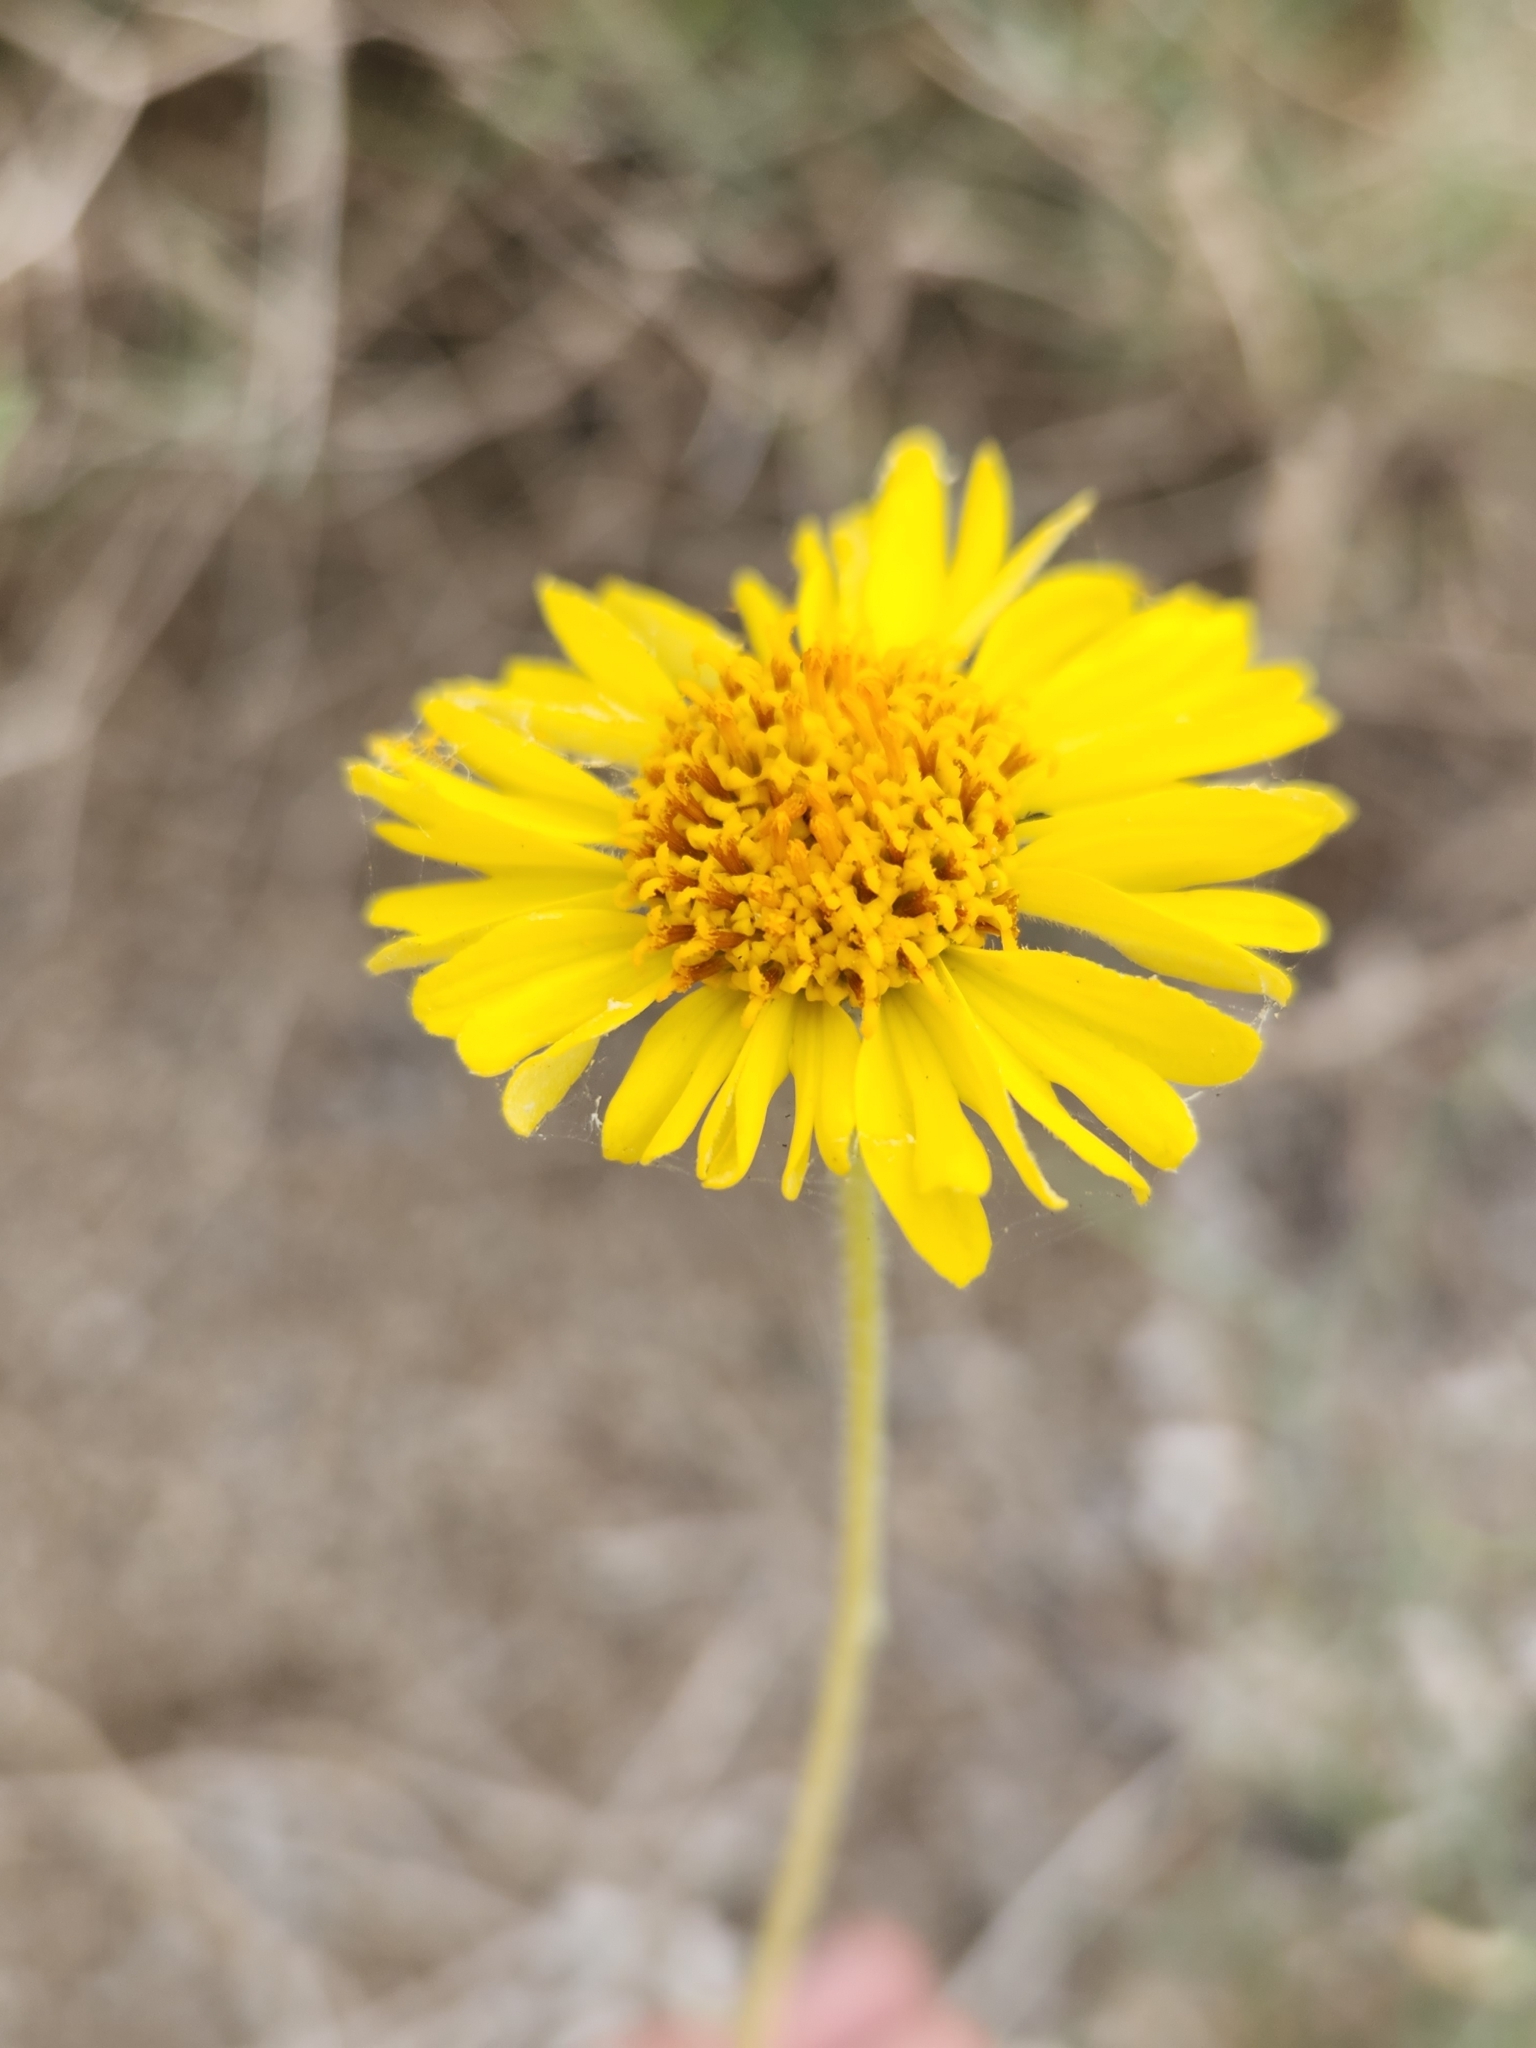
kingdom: Plantae
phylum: Tracheophyta
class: Magnoliopsida
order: Asterales
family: Asteraceae
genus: Encelia
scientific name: Encelia actoni
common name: Acton encelia
